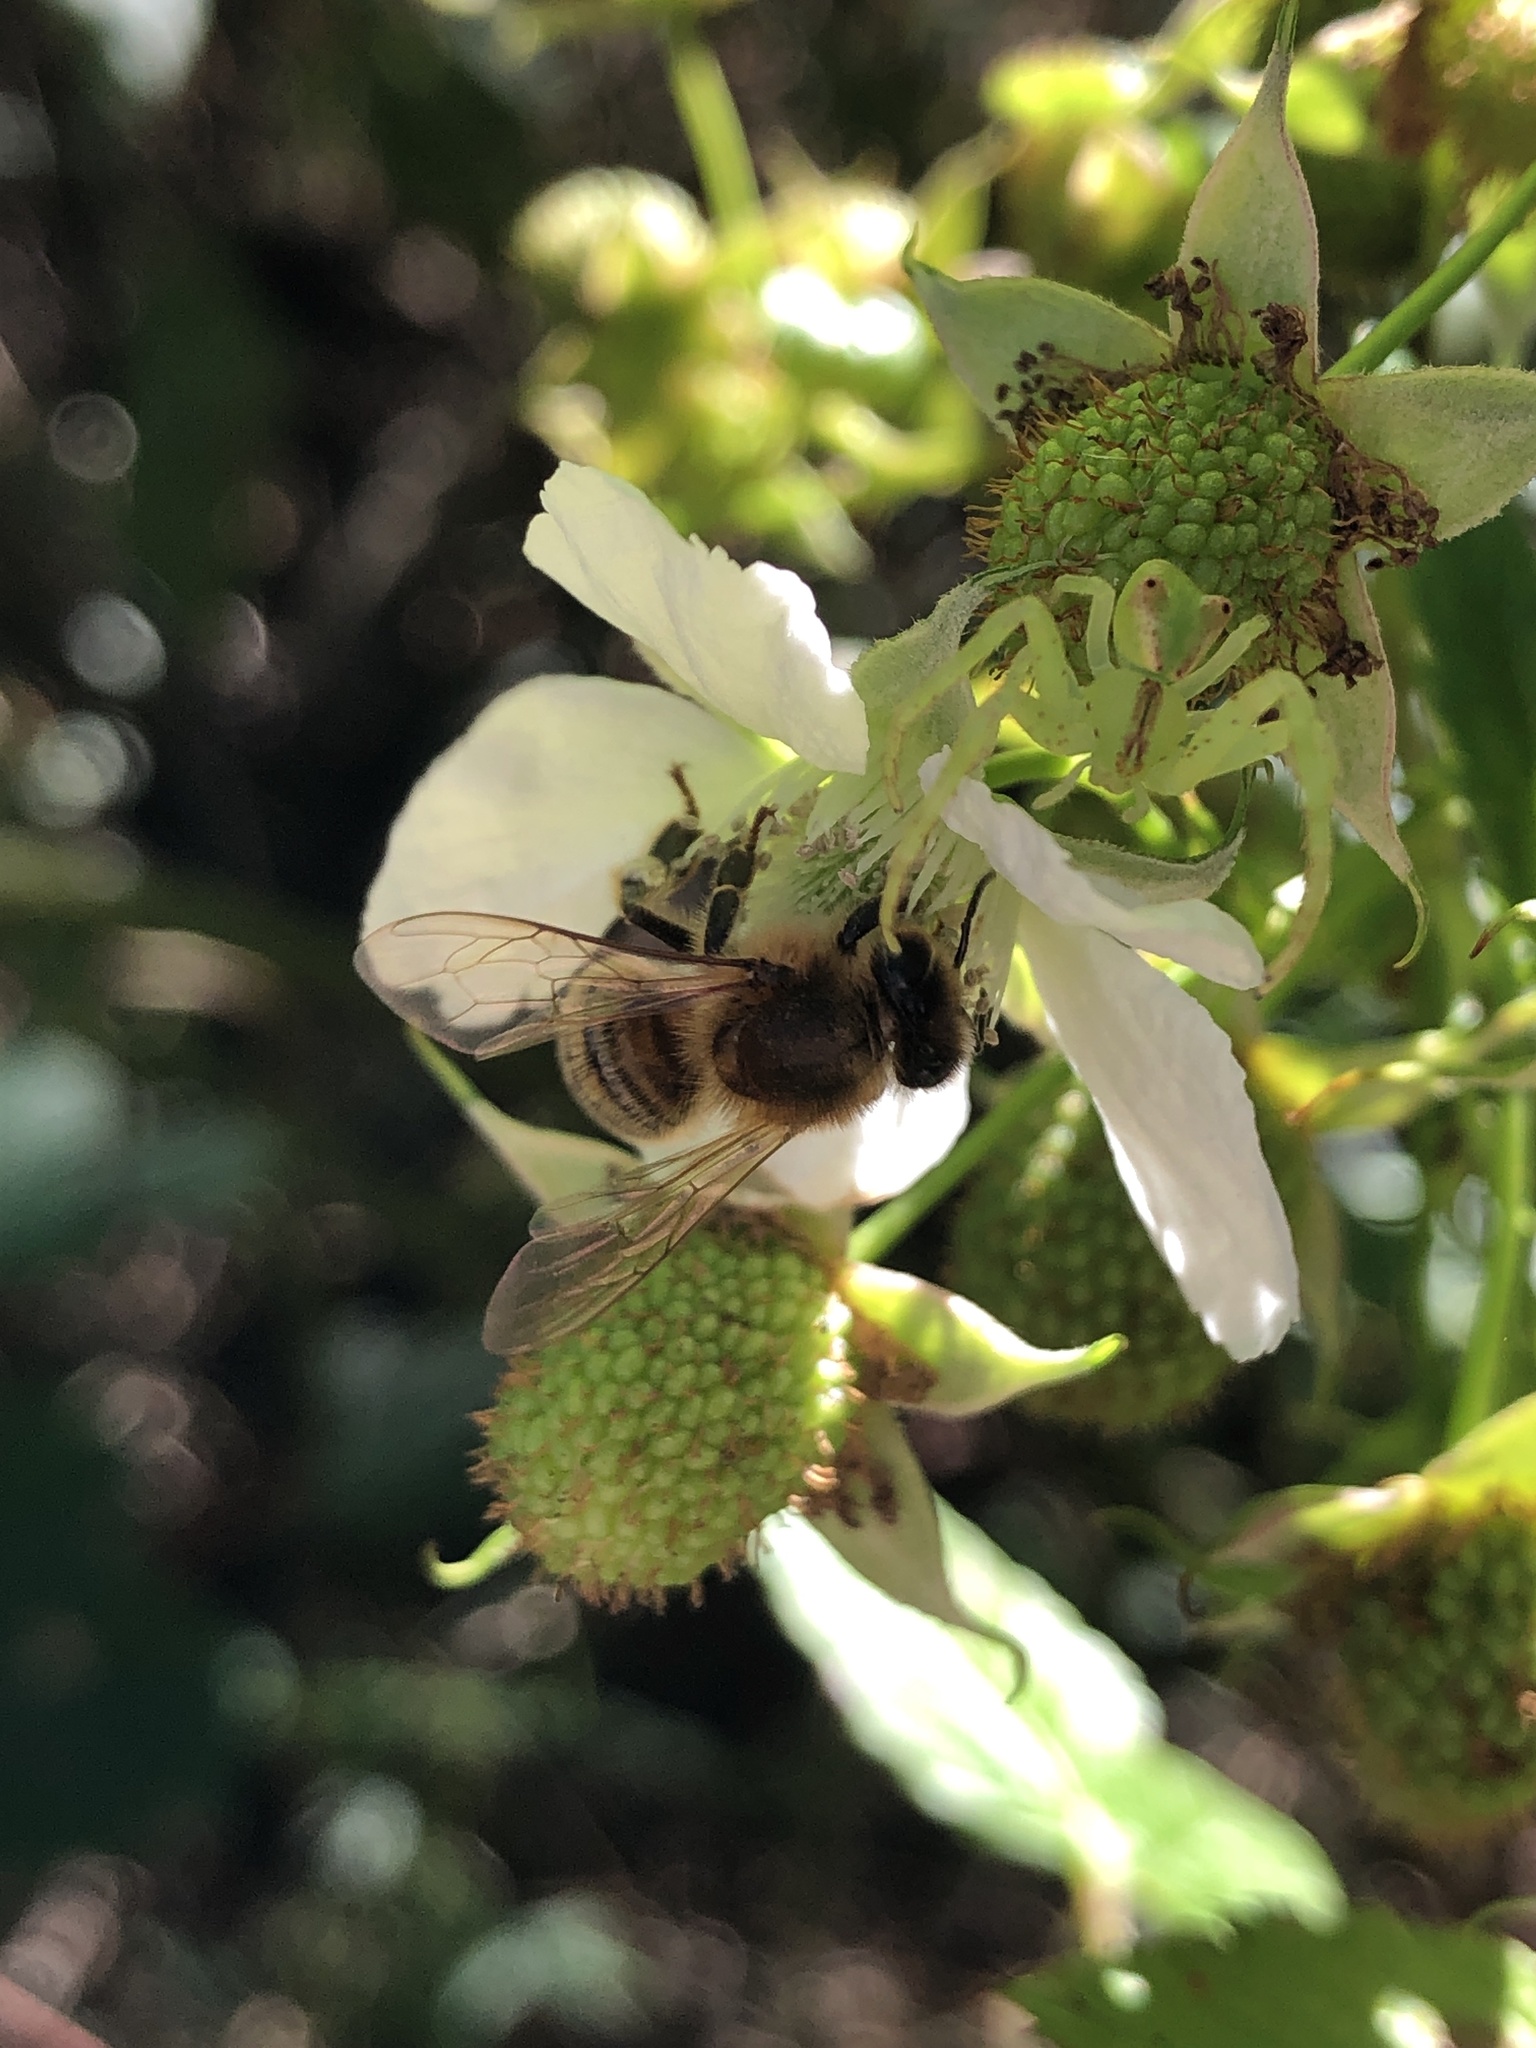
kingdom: Animalia
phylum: Arthropoda
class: Insecta
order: Hymenoptera
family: Apidae
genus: Apis
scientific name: Apis mellifera
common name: Honey bee
